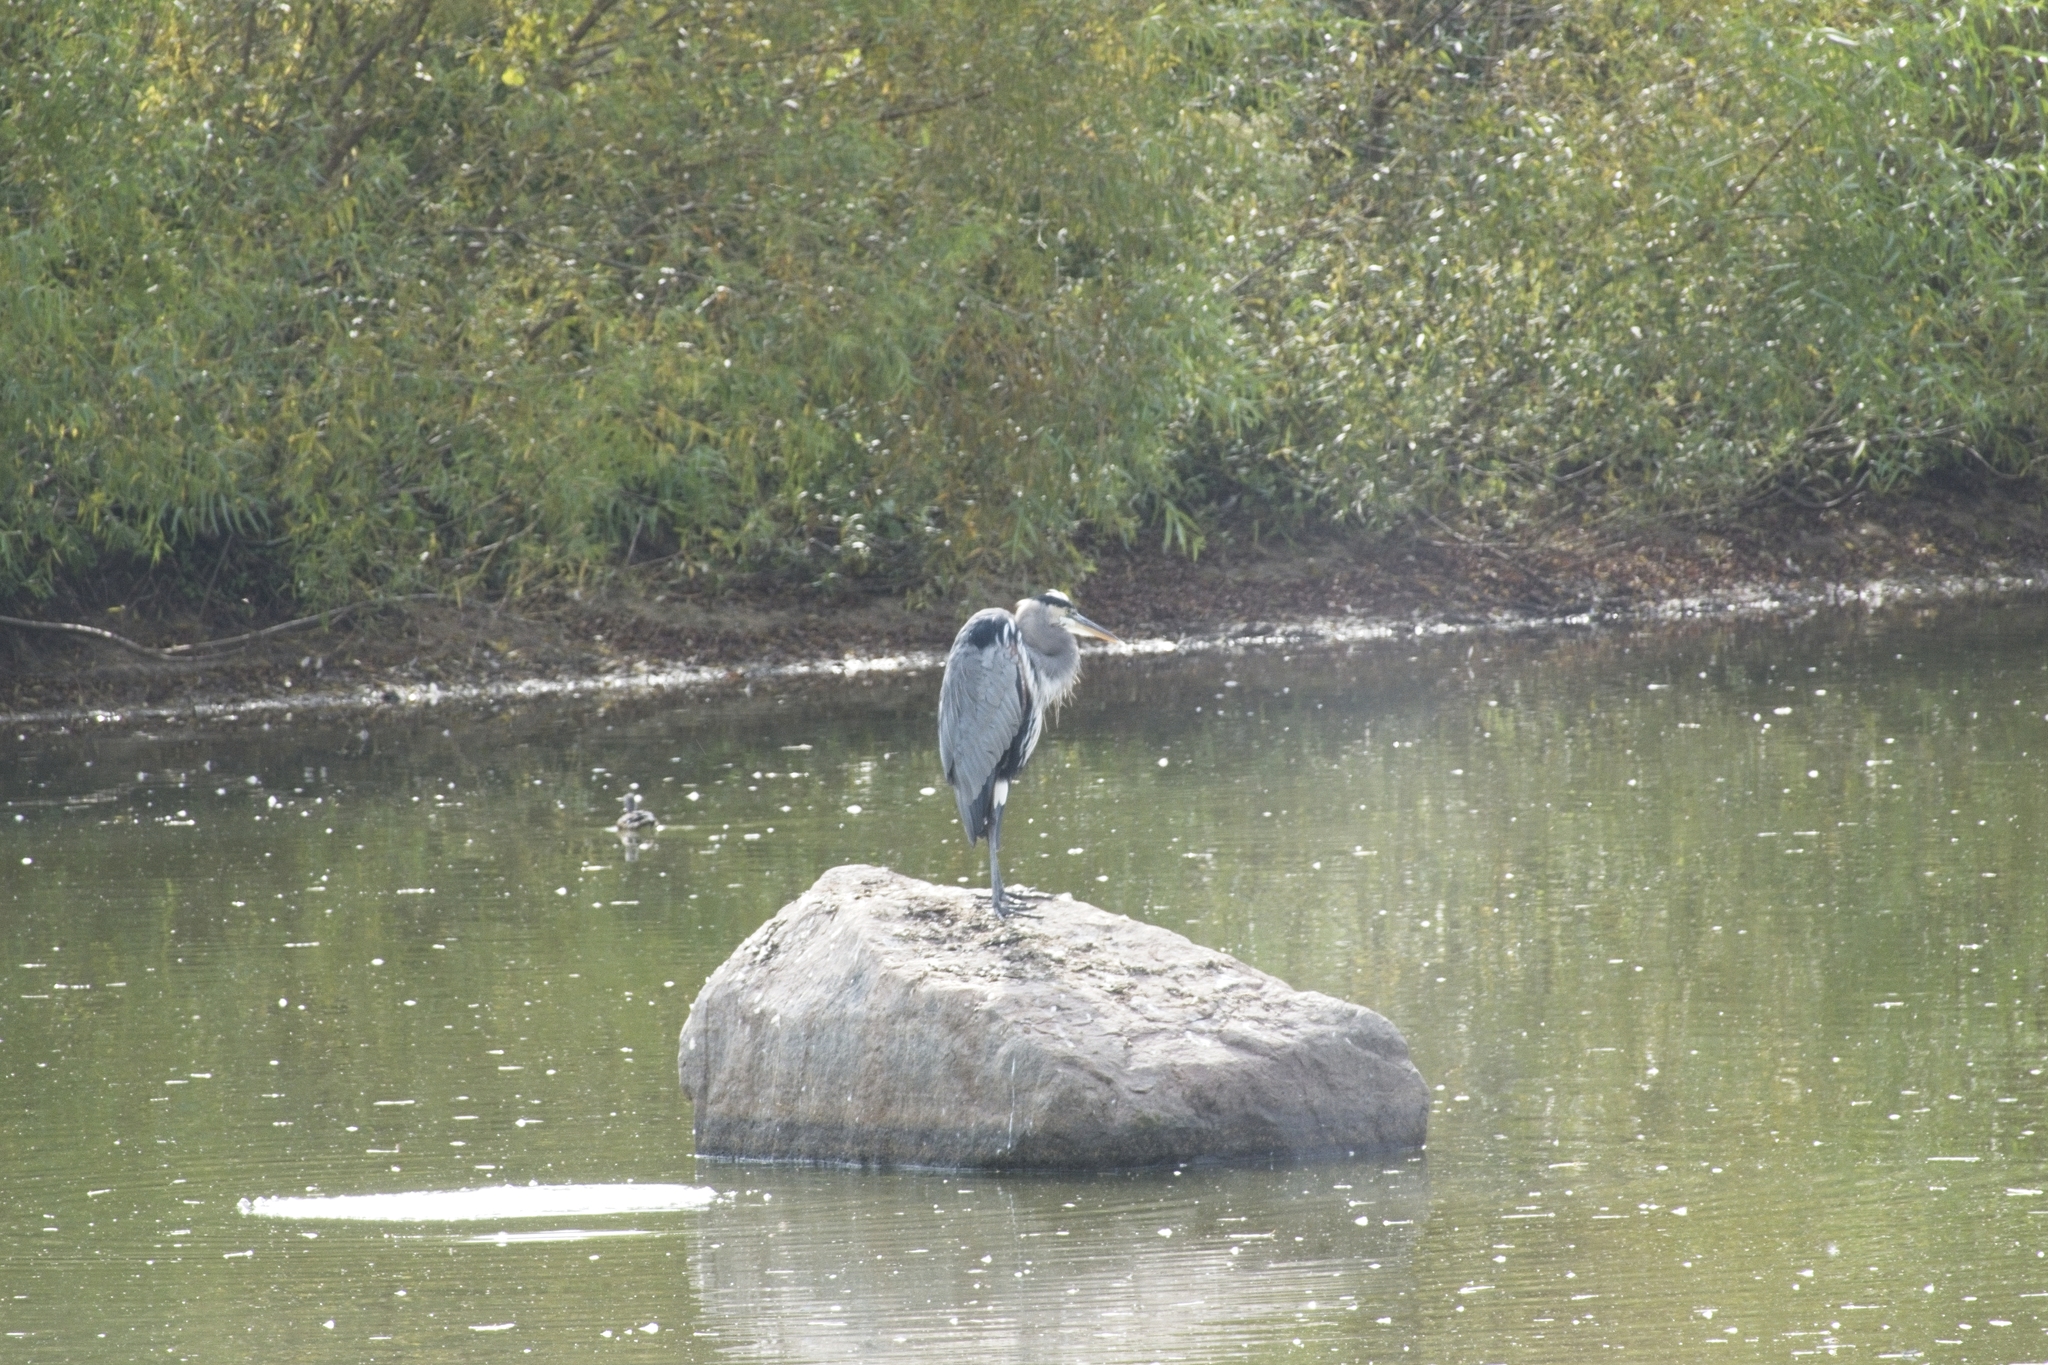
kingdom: Animalia
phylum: Chordata
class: Aves
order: Pelecaniformes
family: Ardeidae
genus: Ardea
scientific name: Ardea herodias
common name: Great blue heron
